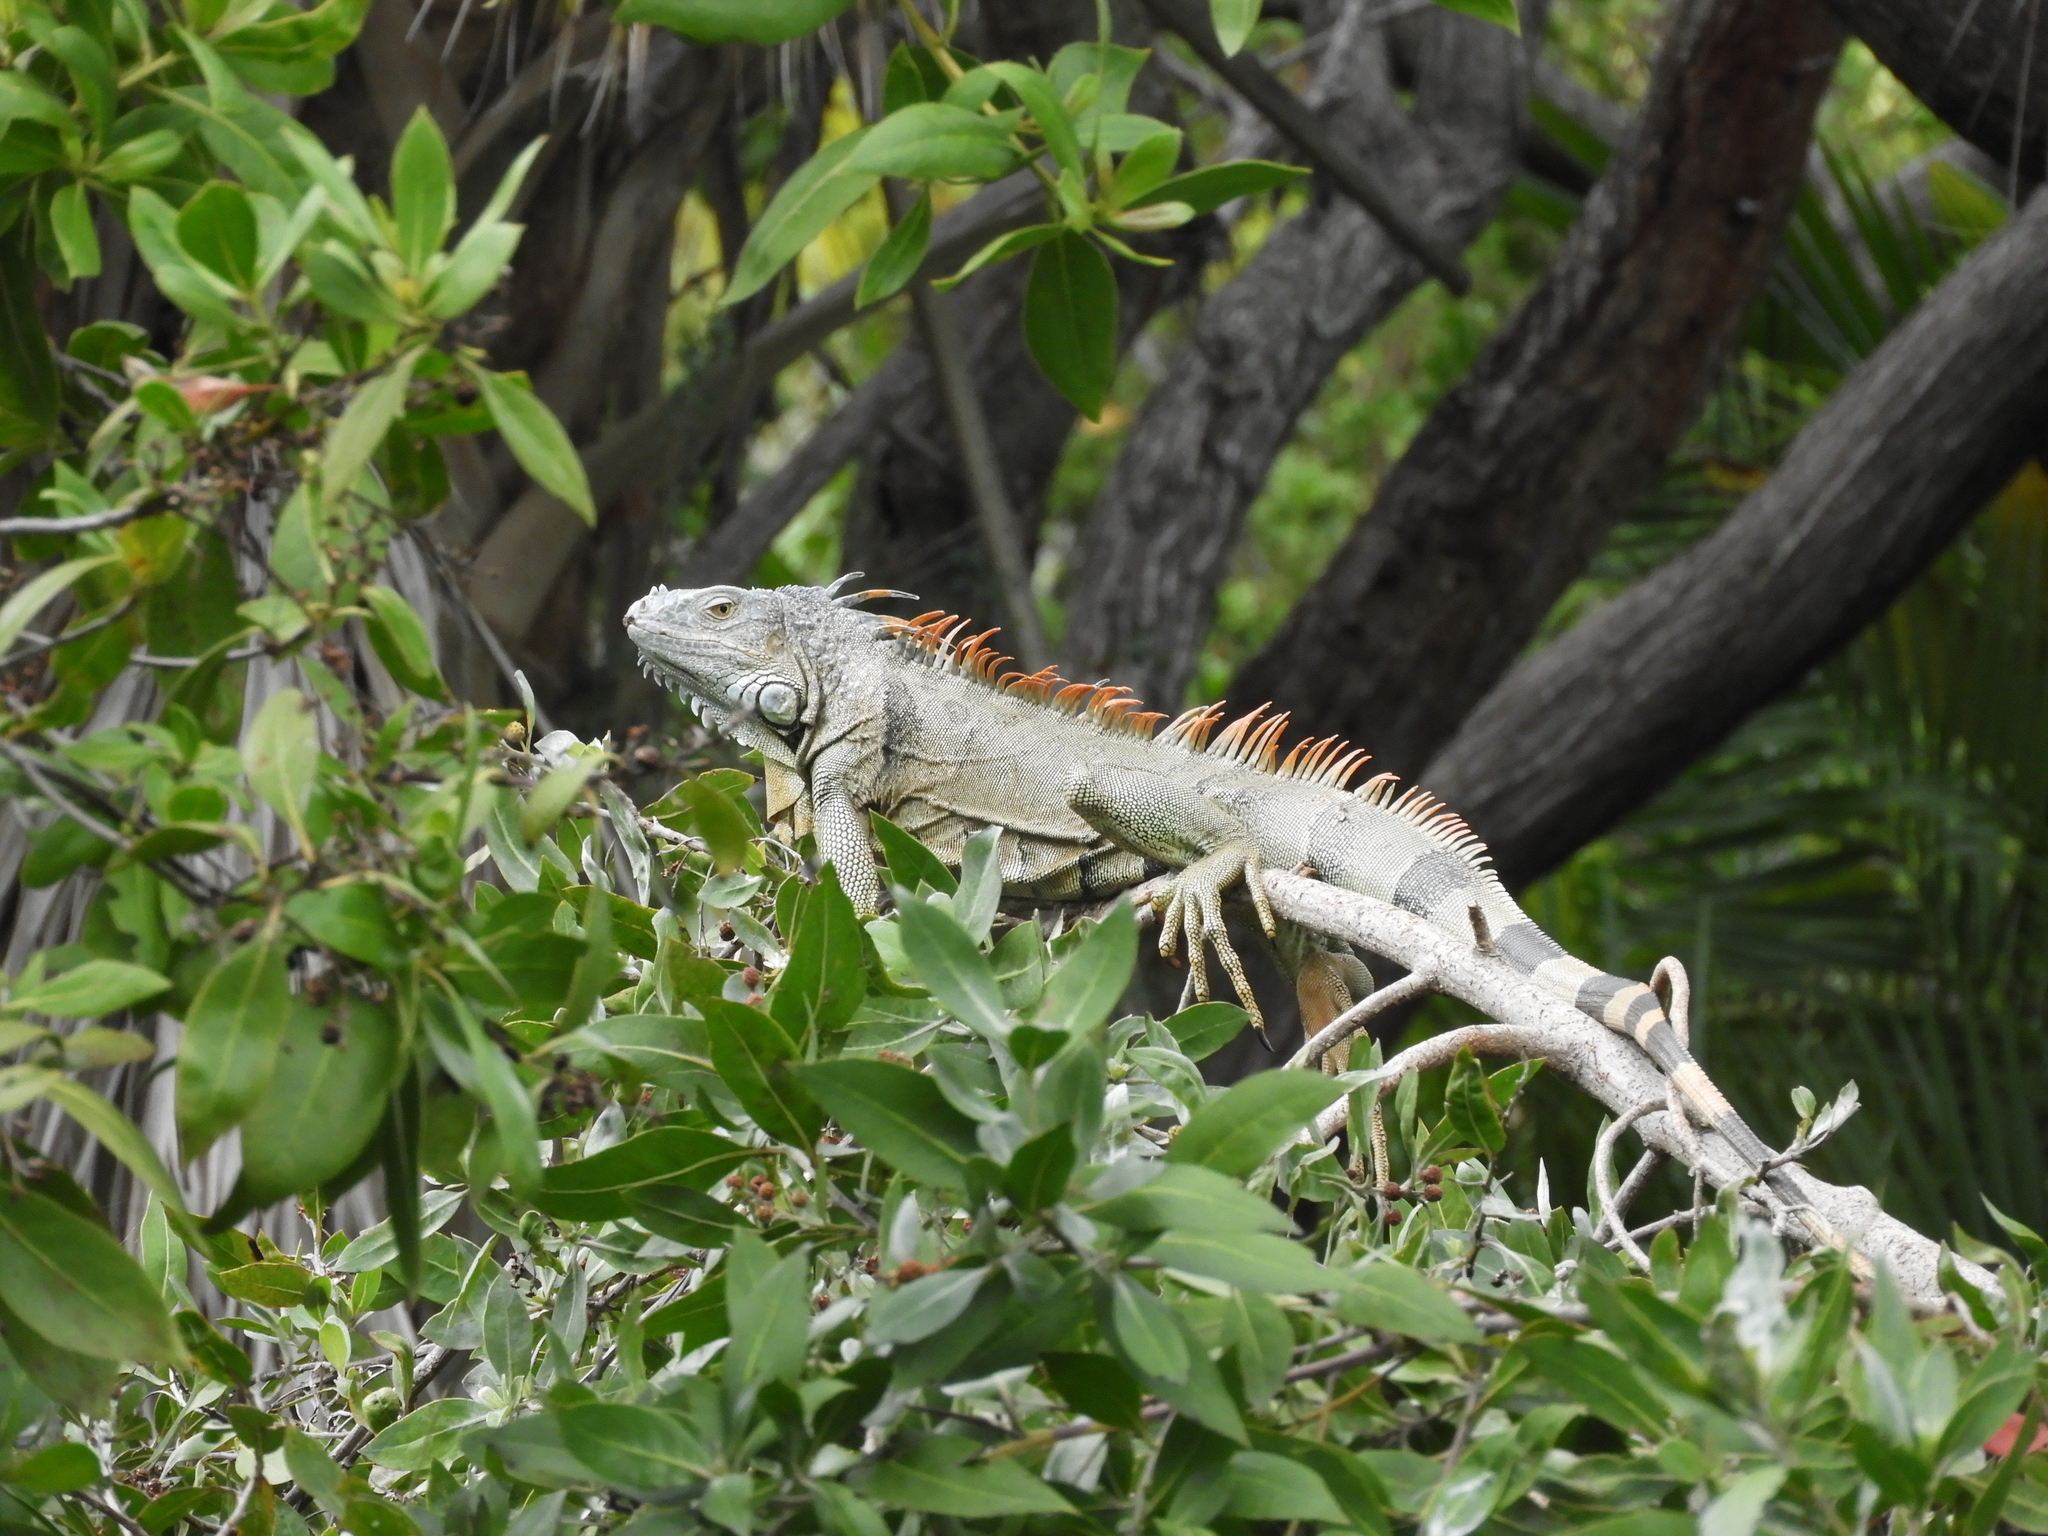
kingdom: Animalia
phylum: Chordata
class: Squamata
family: Iguanidae
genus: Iguana
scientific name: Iguana iguana
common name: Green iguana
